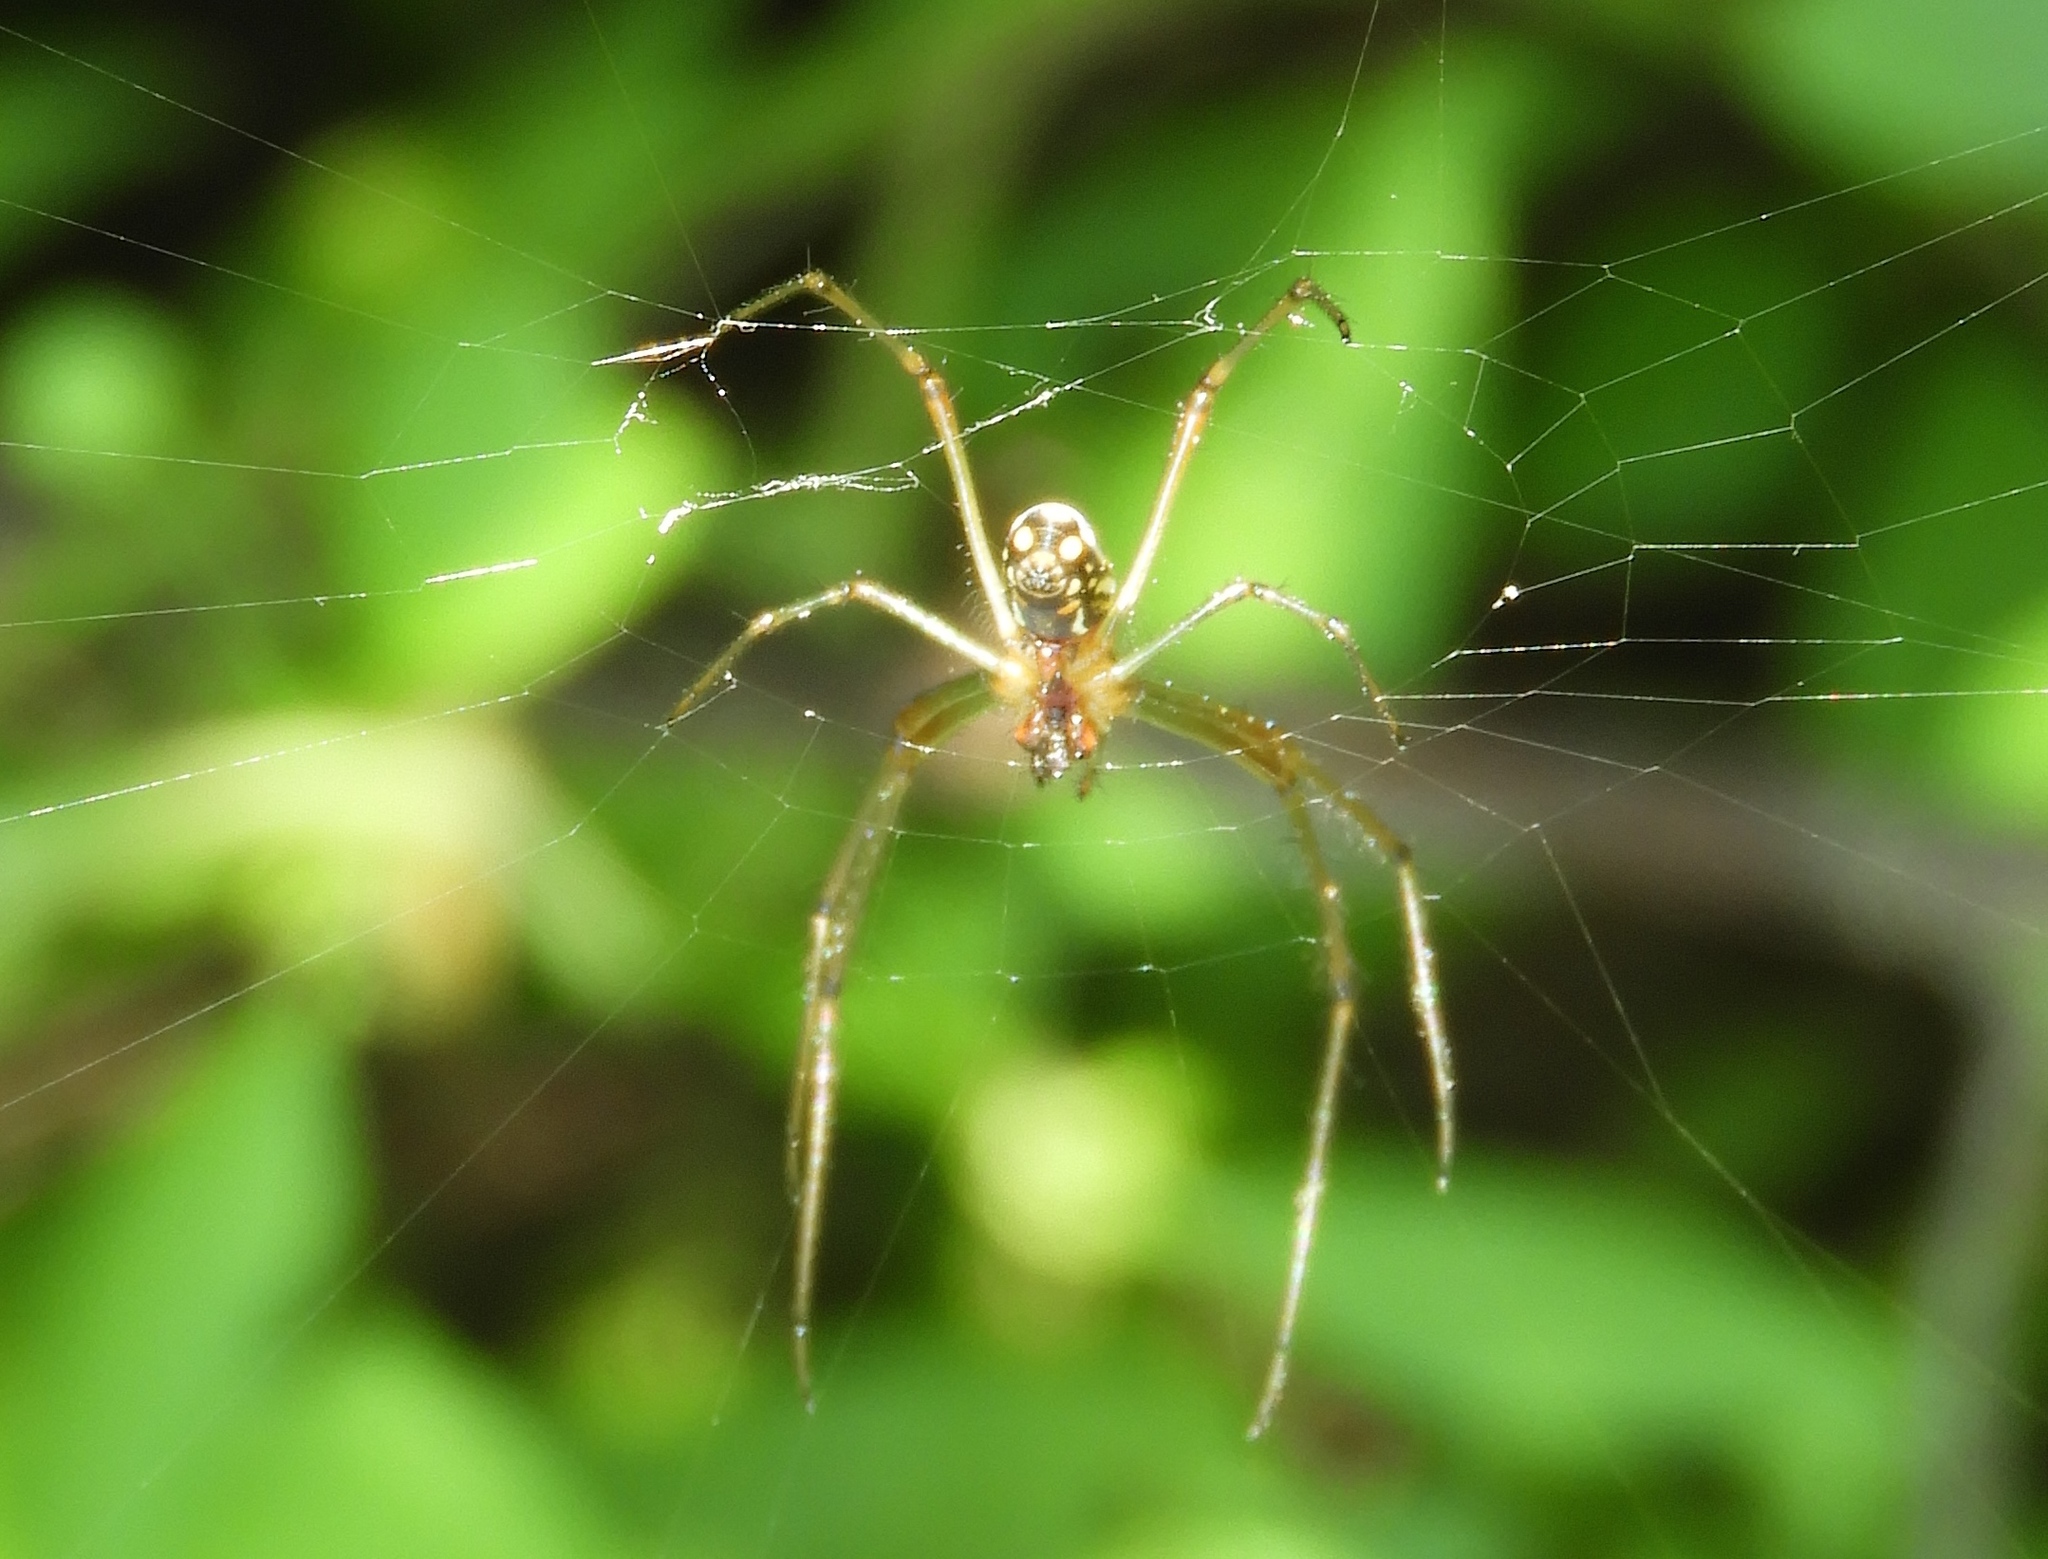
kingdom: Animalia
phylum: Arthropoda
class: Arachnida
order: Araneae
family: Tetragnathidae
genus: Leucauge
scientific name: Leucauge
